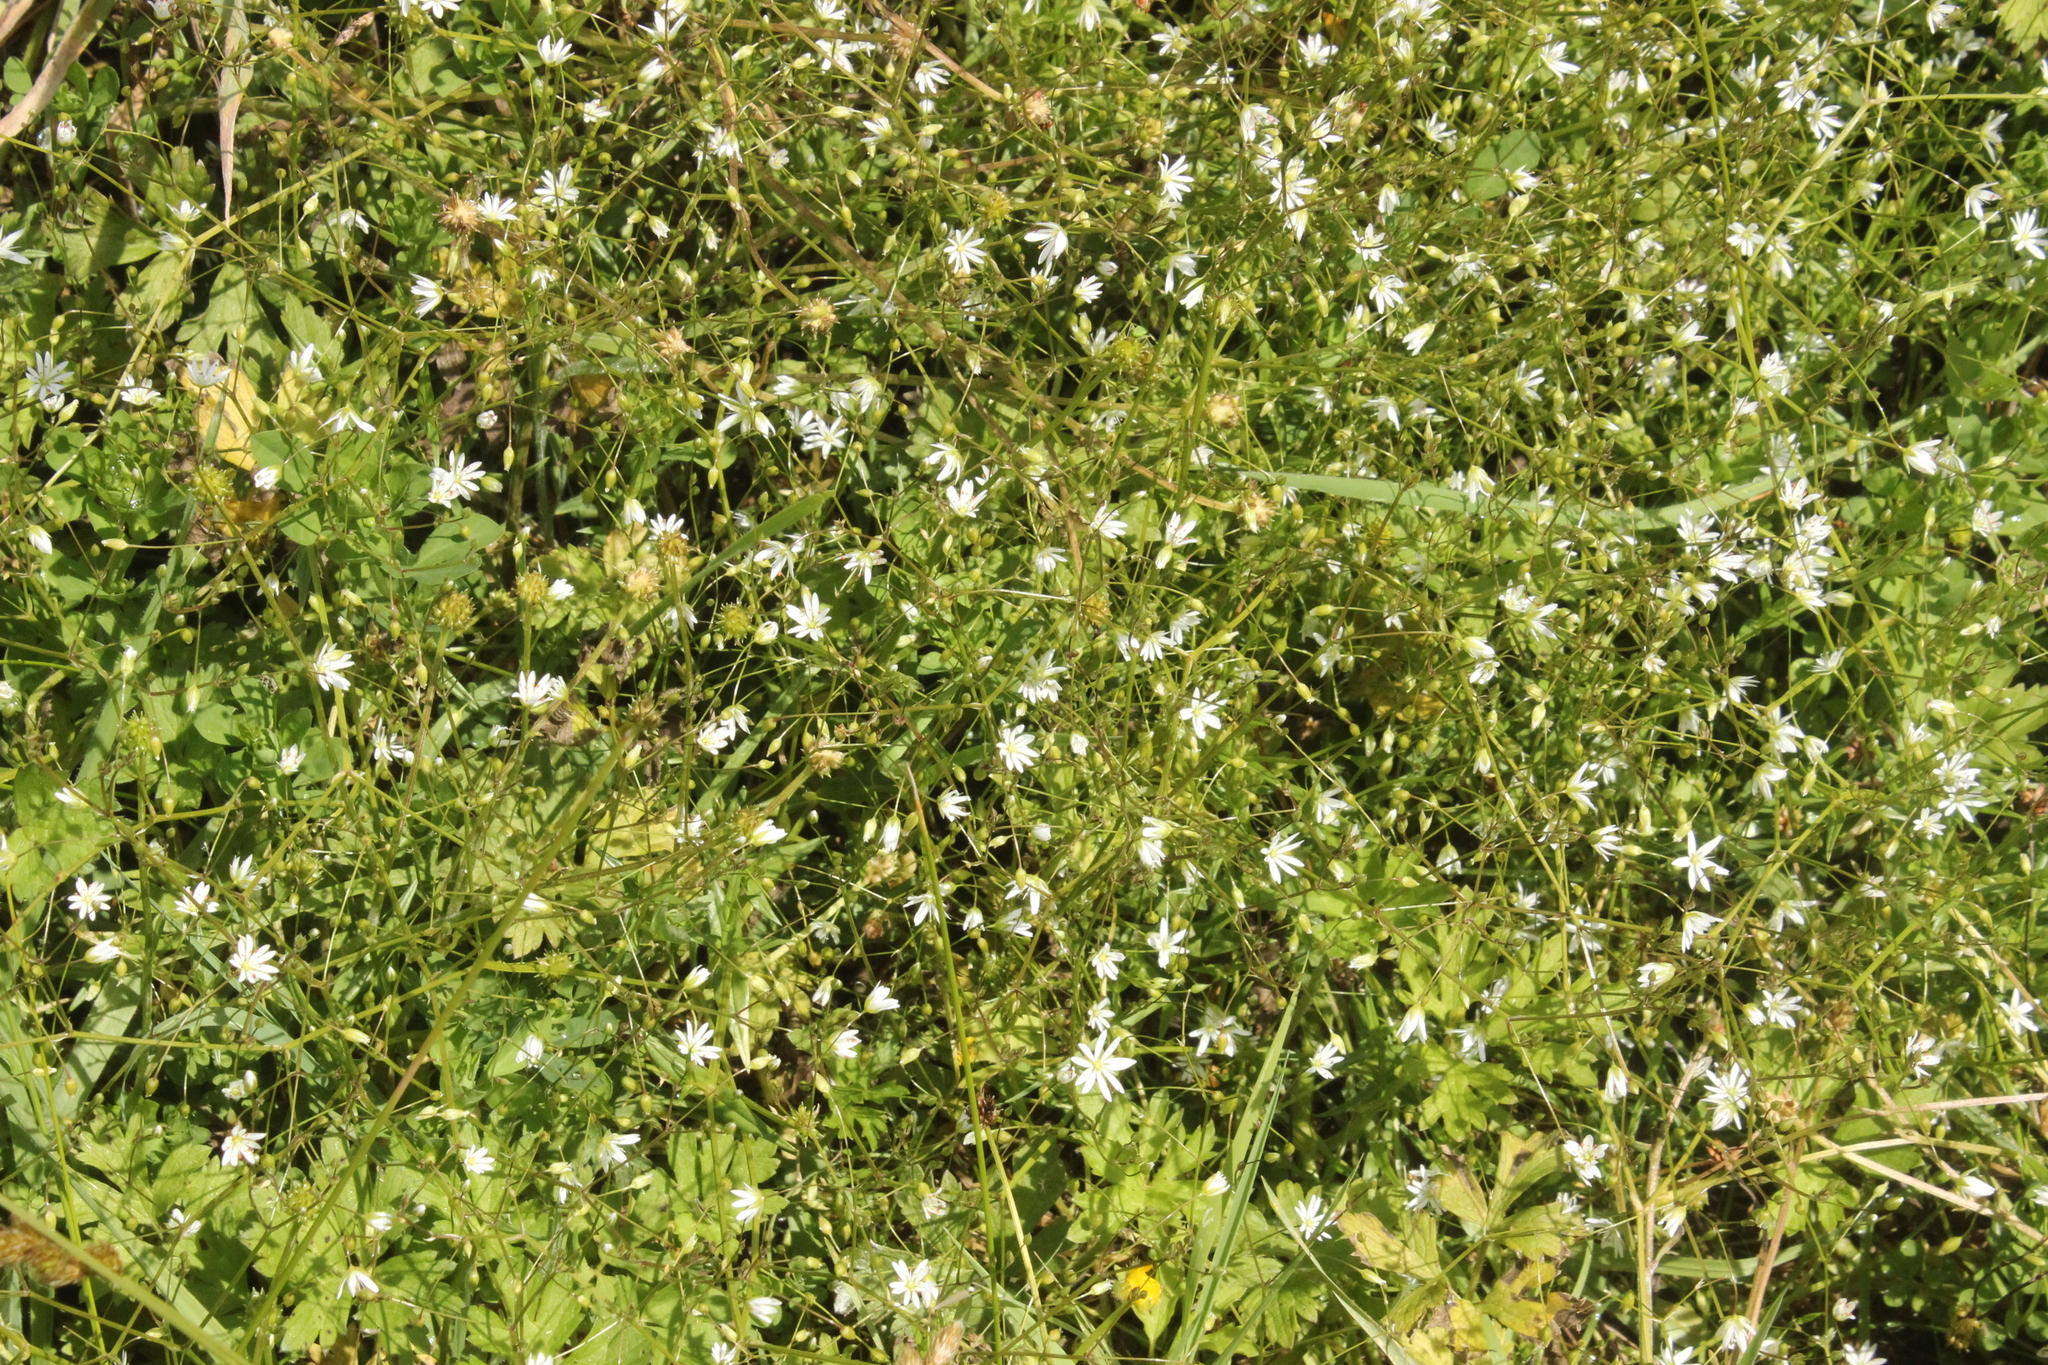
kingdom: Plantae
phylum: Tracheophyta
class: Magnoliopsida
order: Caryophyllales
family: Caryophyllaceae
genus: Stellaria
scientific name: Stellaria graminea
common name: Grass-like starwort
